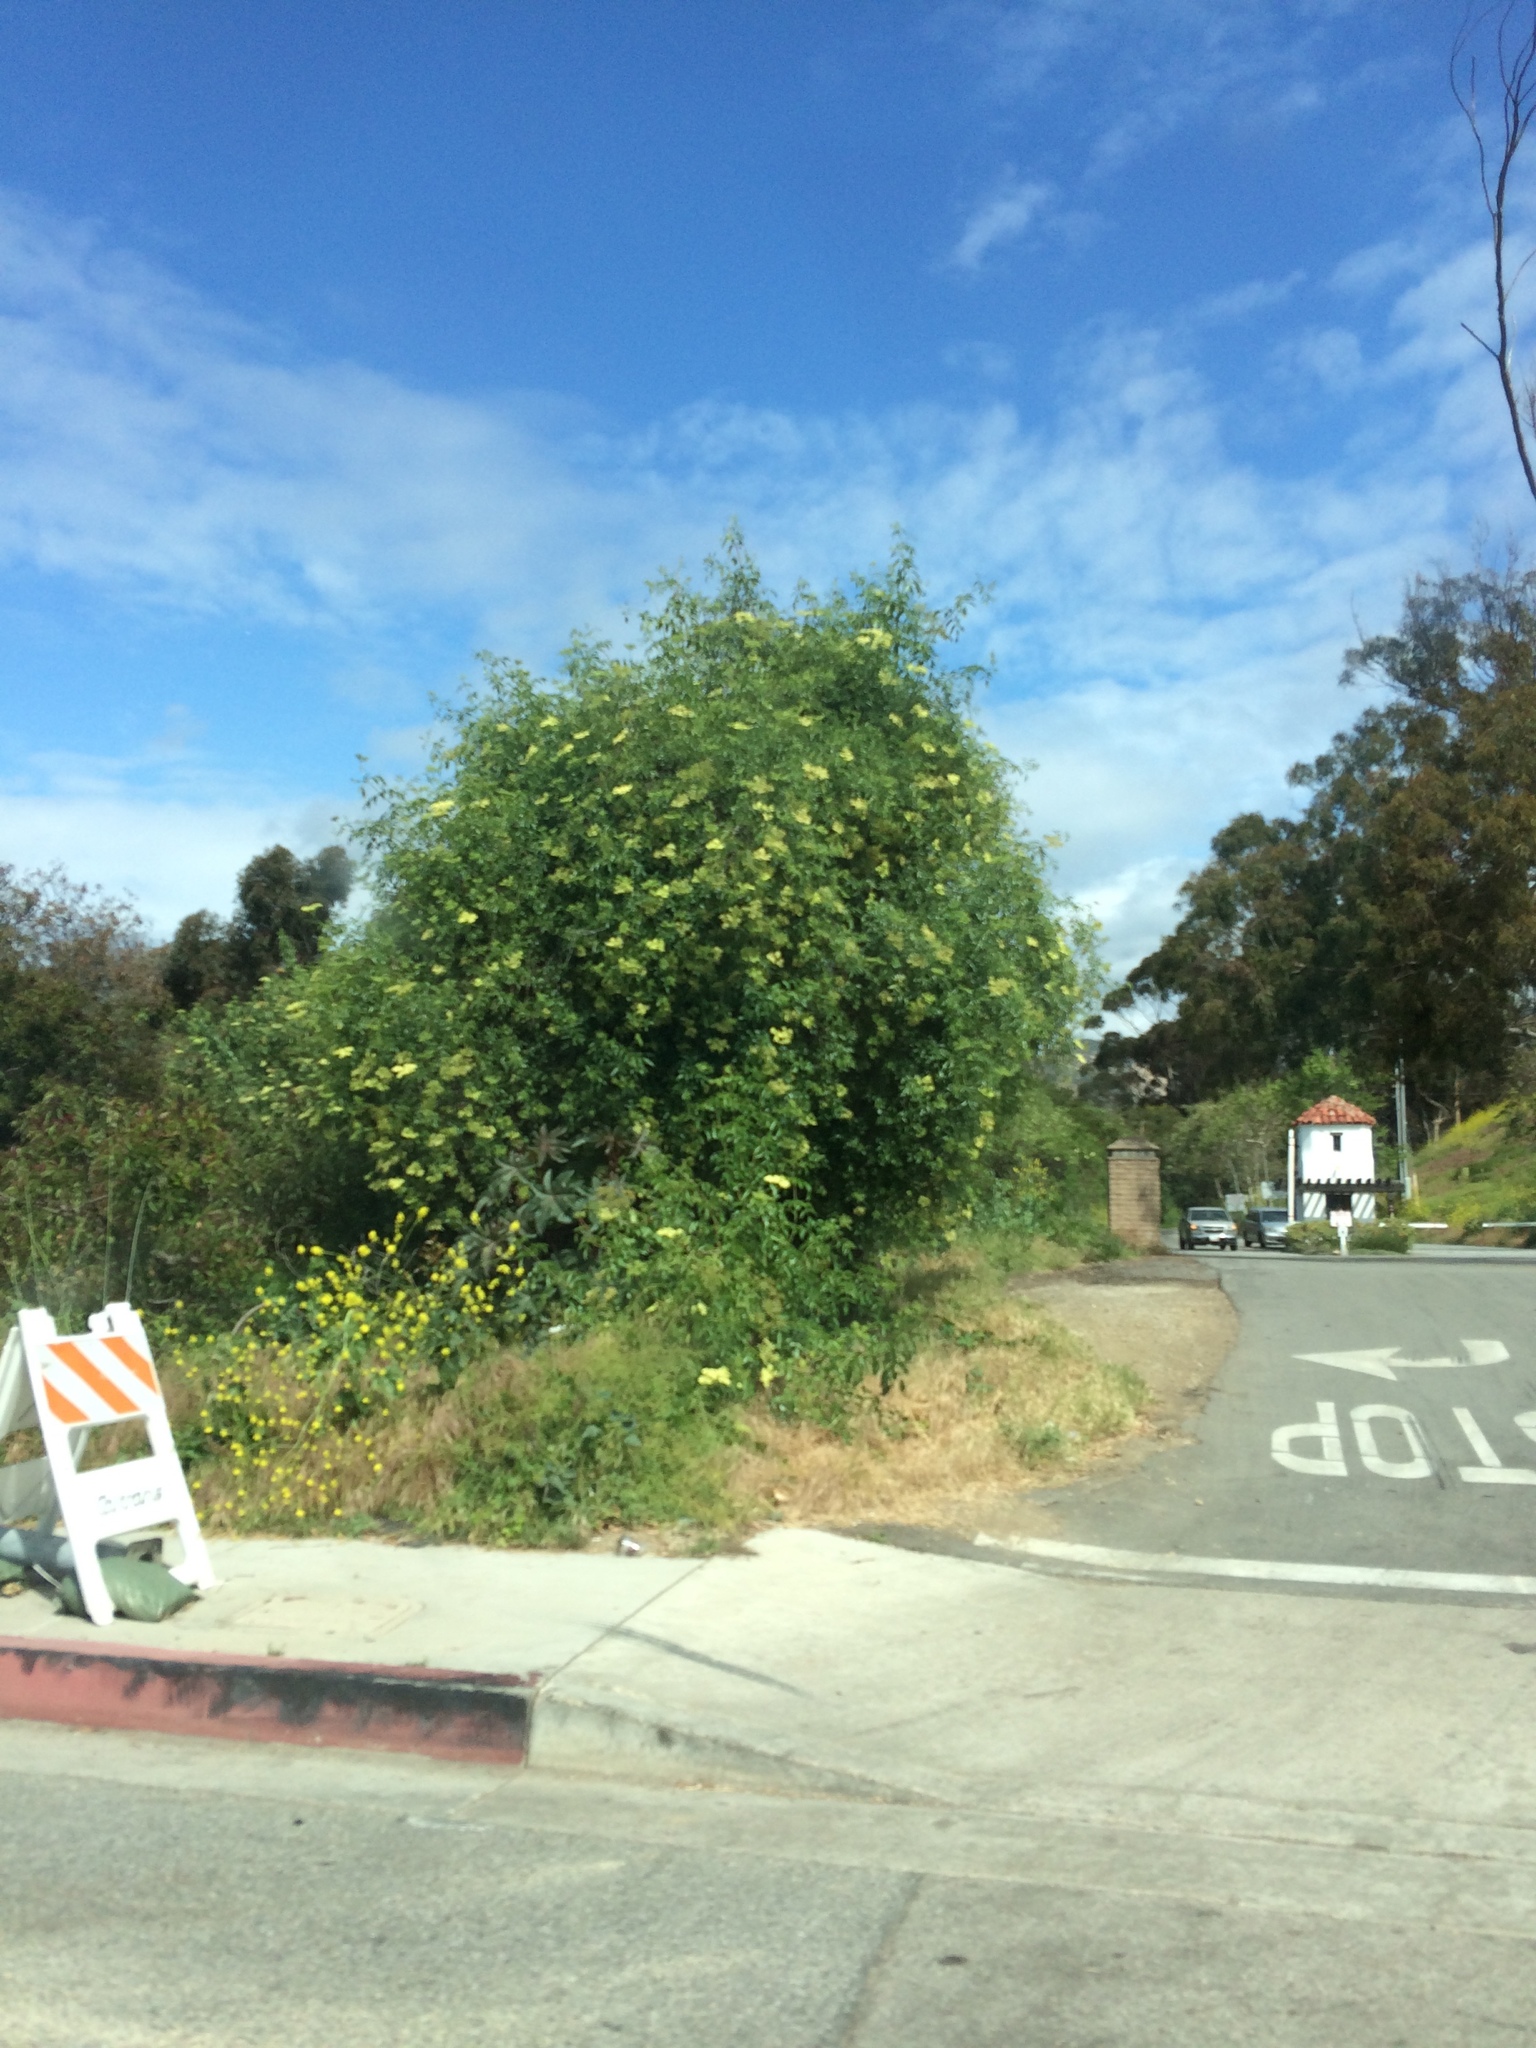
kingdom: Plantae
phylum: Tracheophyta
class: Magnoliopsida
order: Dipsacales
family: Viburnaceae
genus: Sambucus
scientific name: Sambucus cerulea
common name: Blue elder
